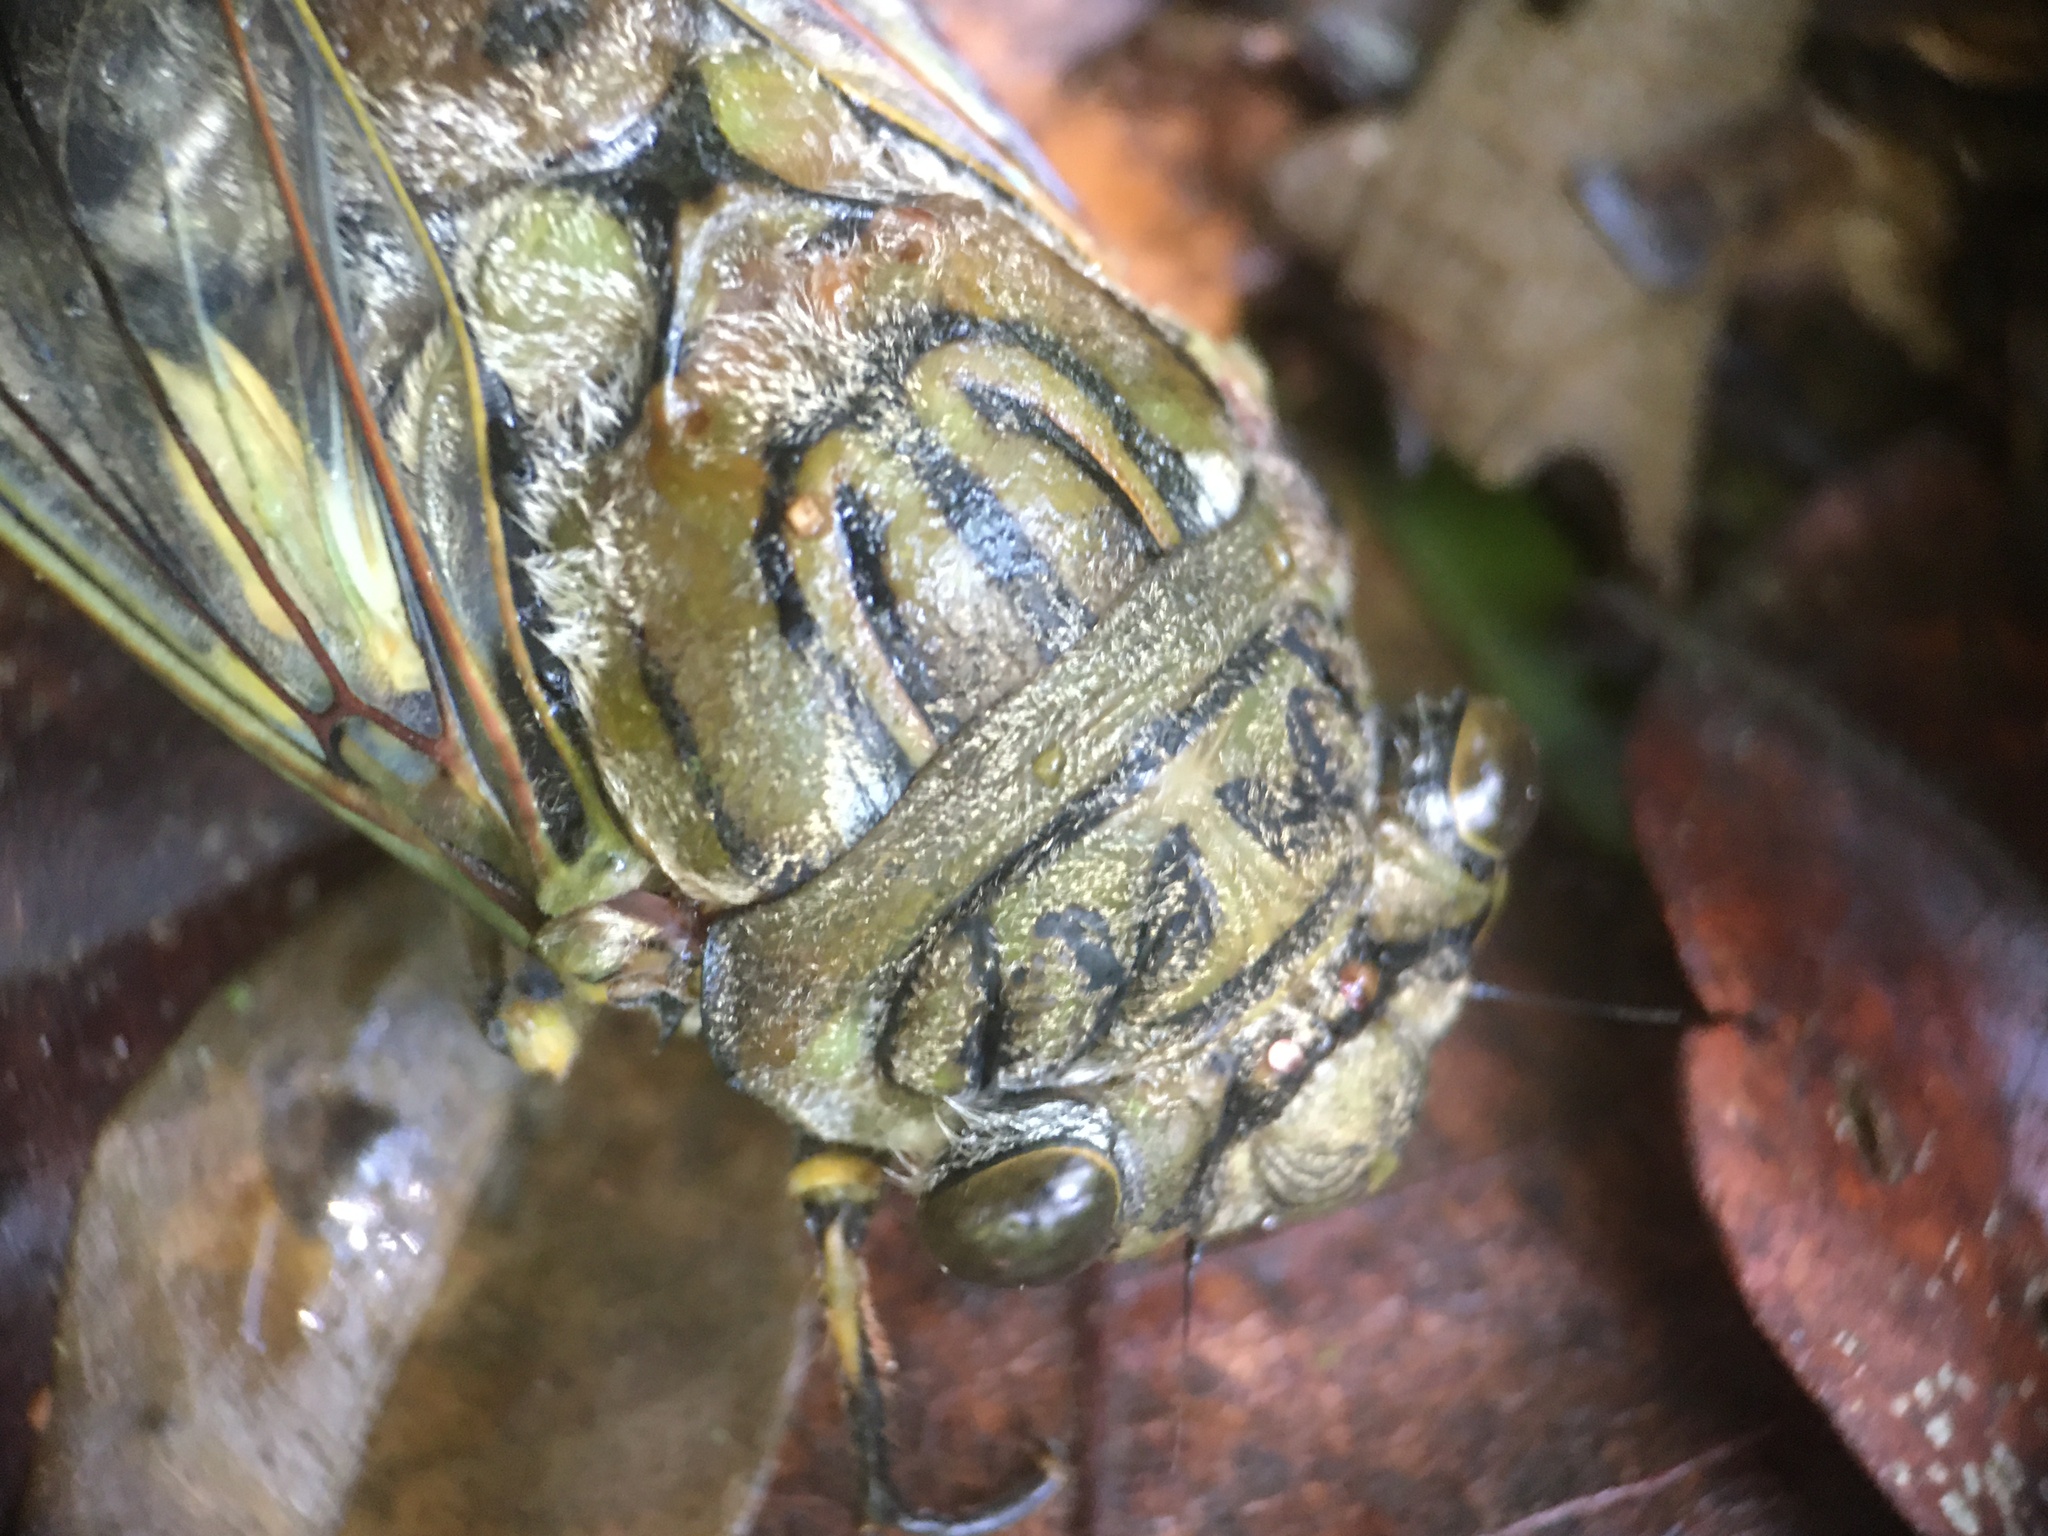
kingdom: Animalia
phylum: Arthropoda
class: Insecta
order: Hemiptera
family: Cicadidae
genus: Quesada
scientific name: Quesada gigas
